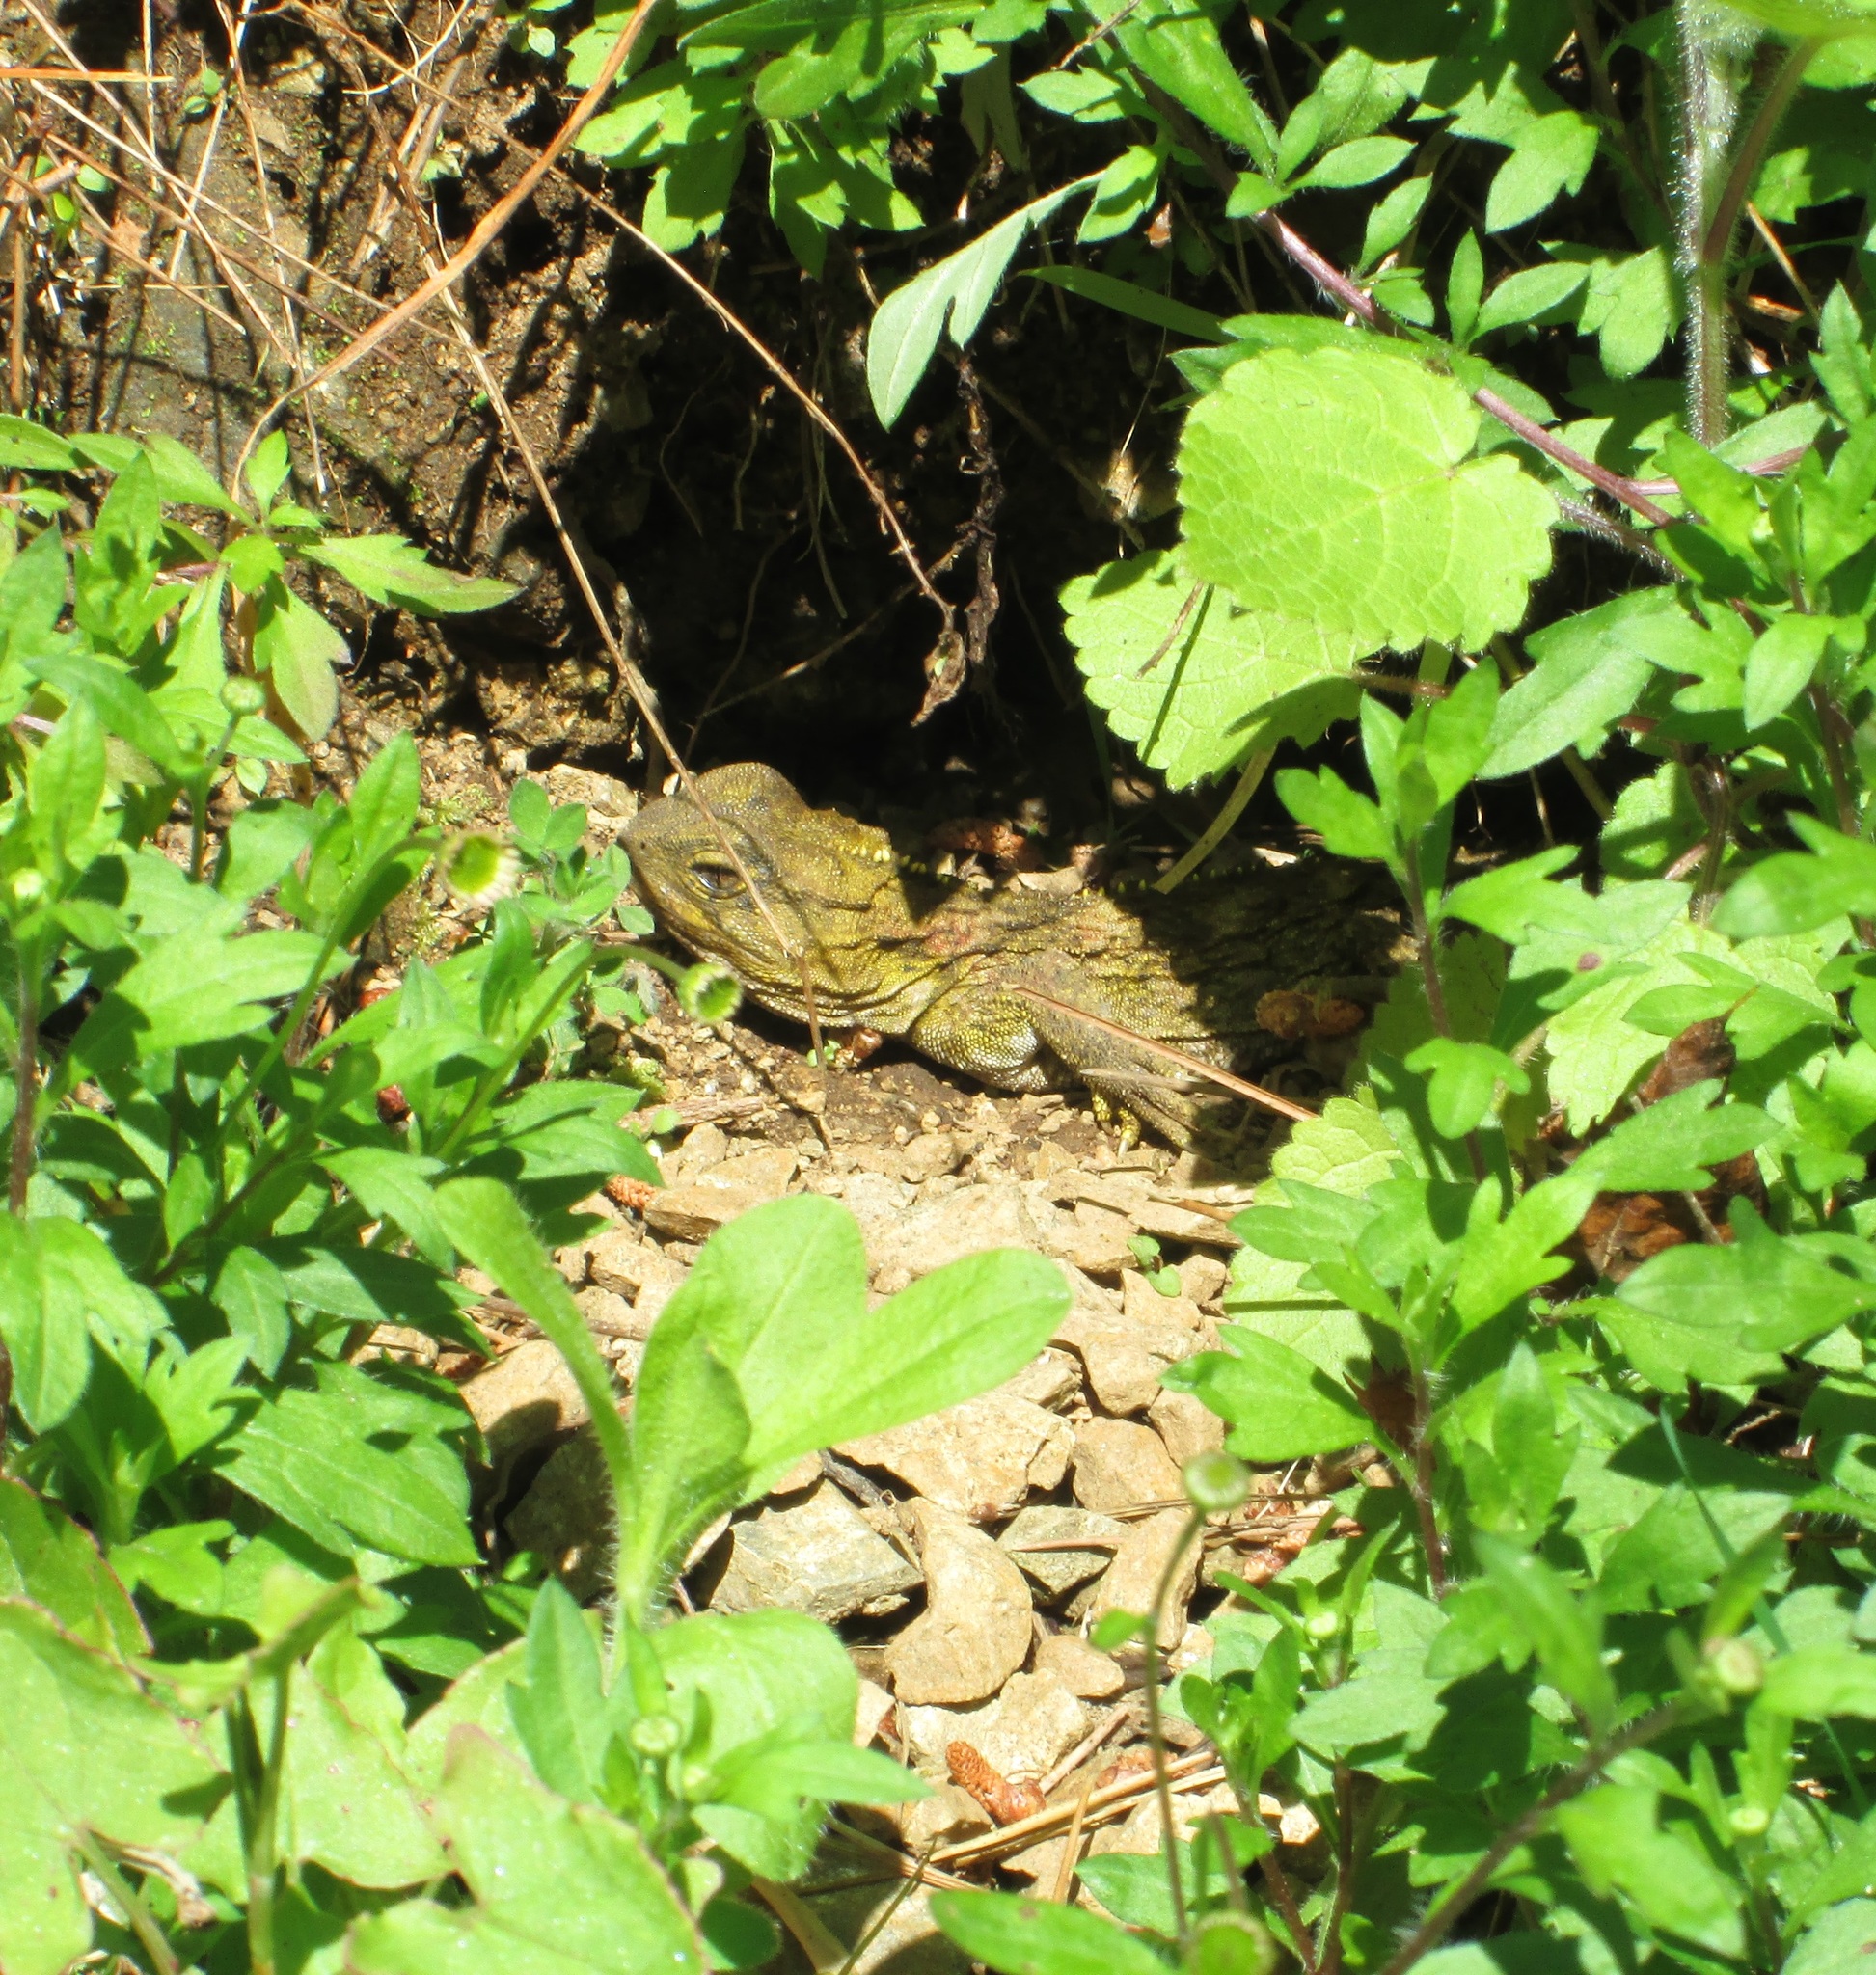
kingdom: Animalia
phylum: Chordata
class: Sphenodontia
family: Sphenodontidae
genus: Sphenodon
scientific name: Sphenodon punctatus
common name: Tuatara
